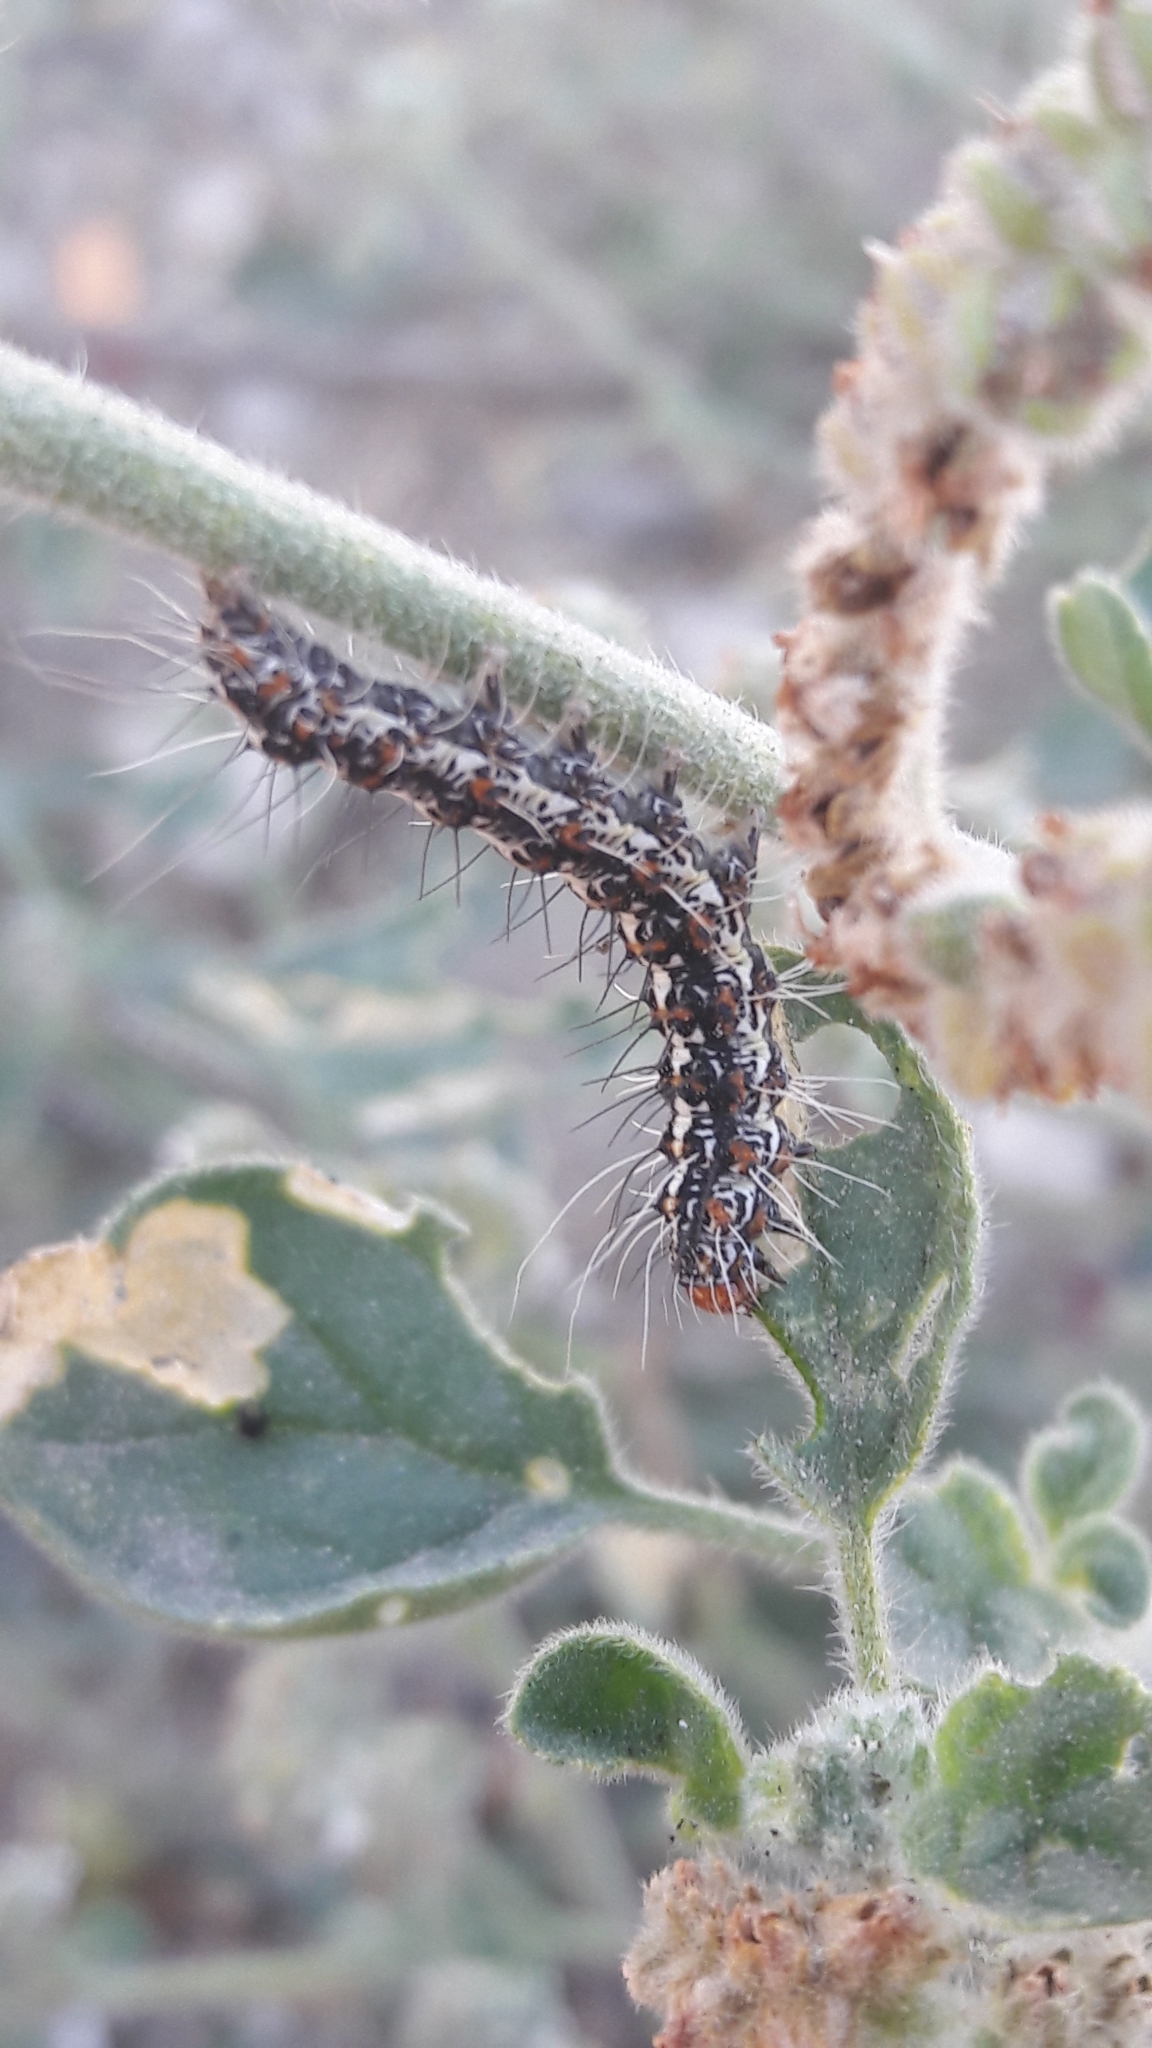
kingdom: Animalia
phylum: Arthropoda
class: Insecta
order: Lepidoptera
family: Erebidae
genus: Utetheisa
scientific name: Utetheisa pulchella
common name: Crimson speckled
